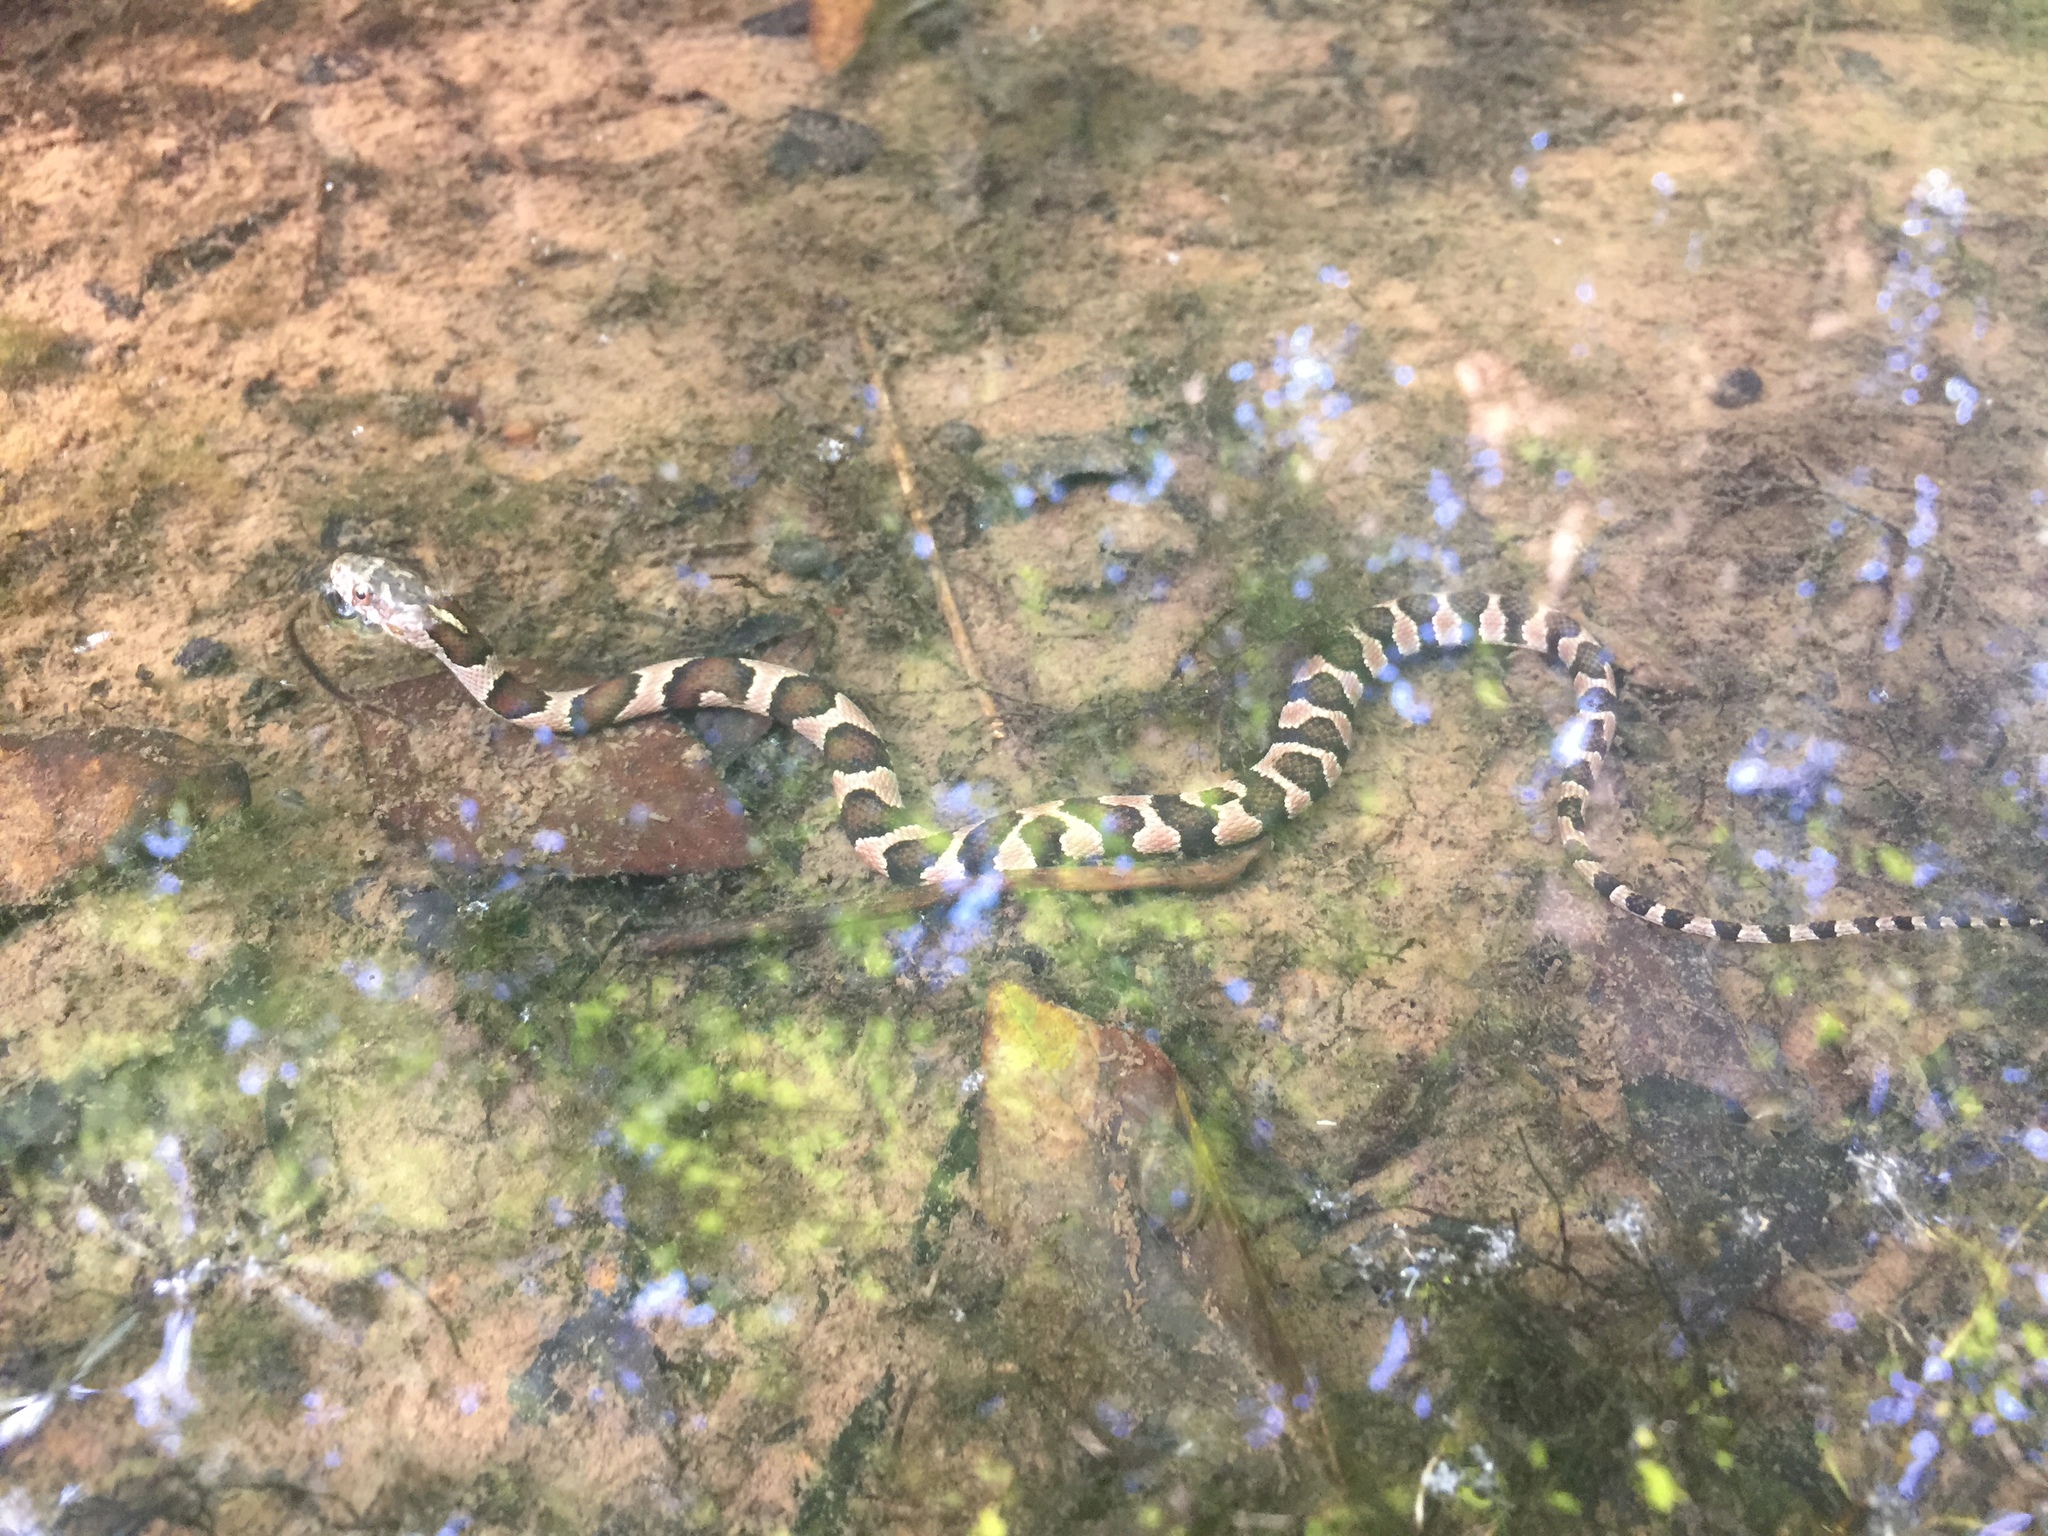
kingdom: Animalia
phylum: Chordata
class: Squamata
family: Colubridae
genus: Nerodia
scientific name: Nerodia sipedon
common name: Northern water snake
